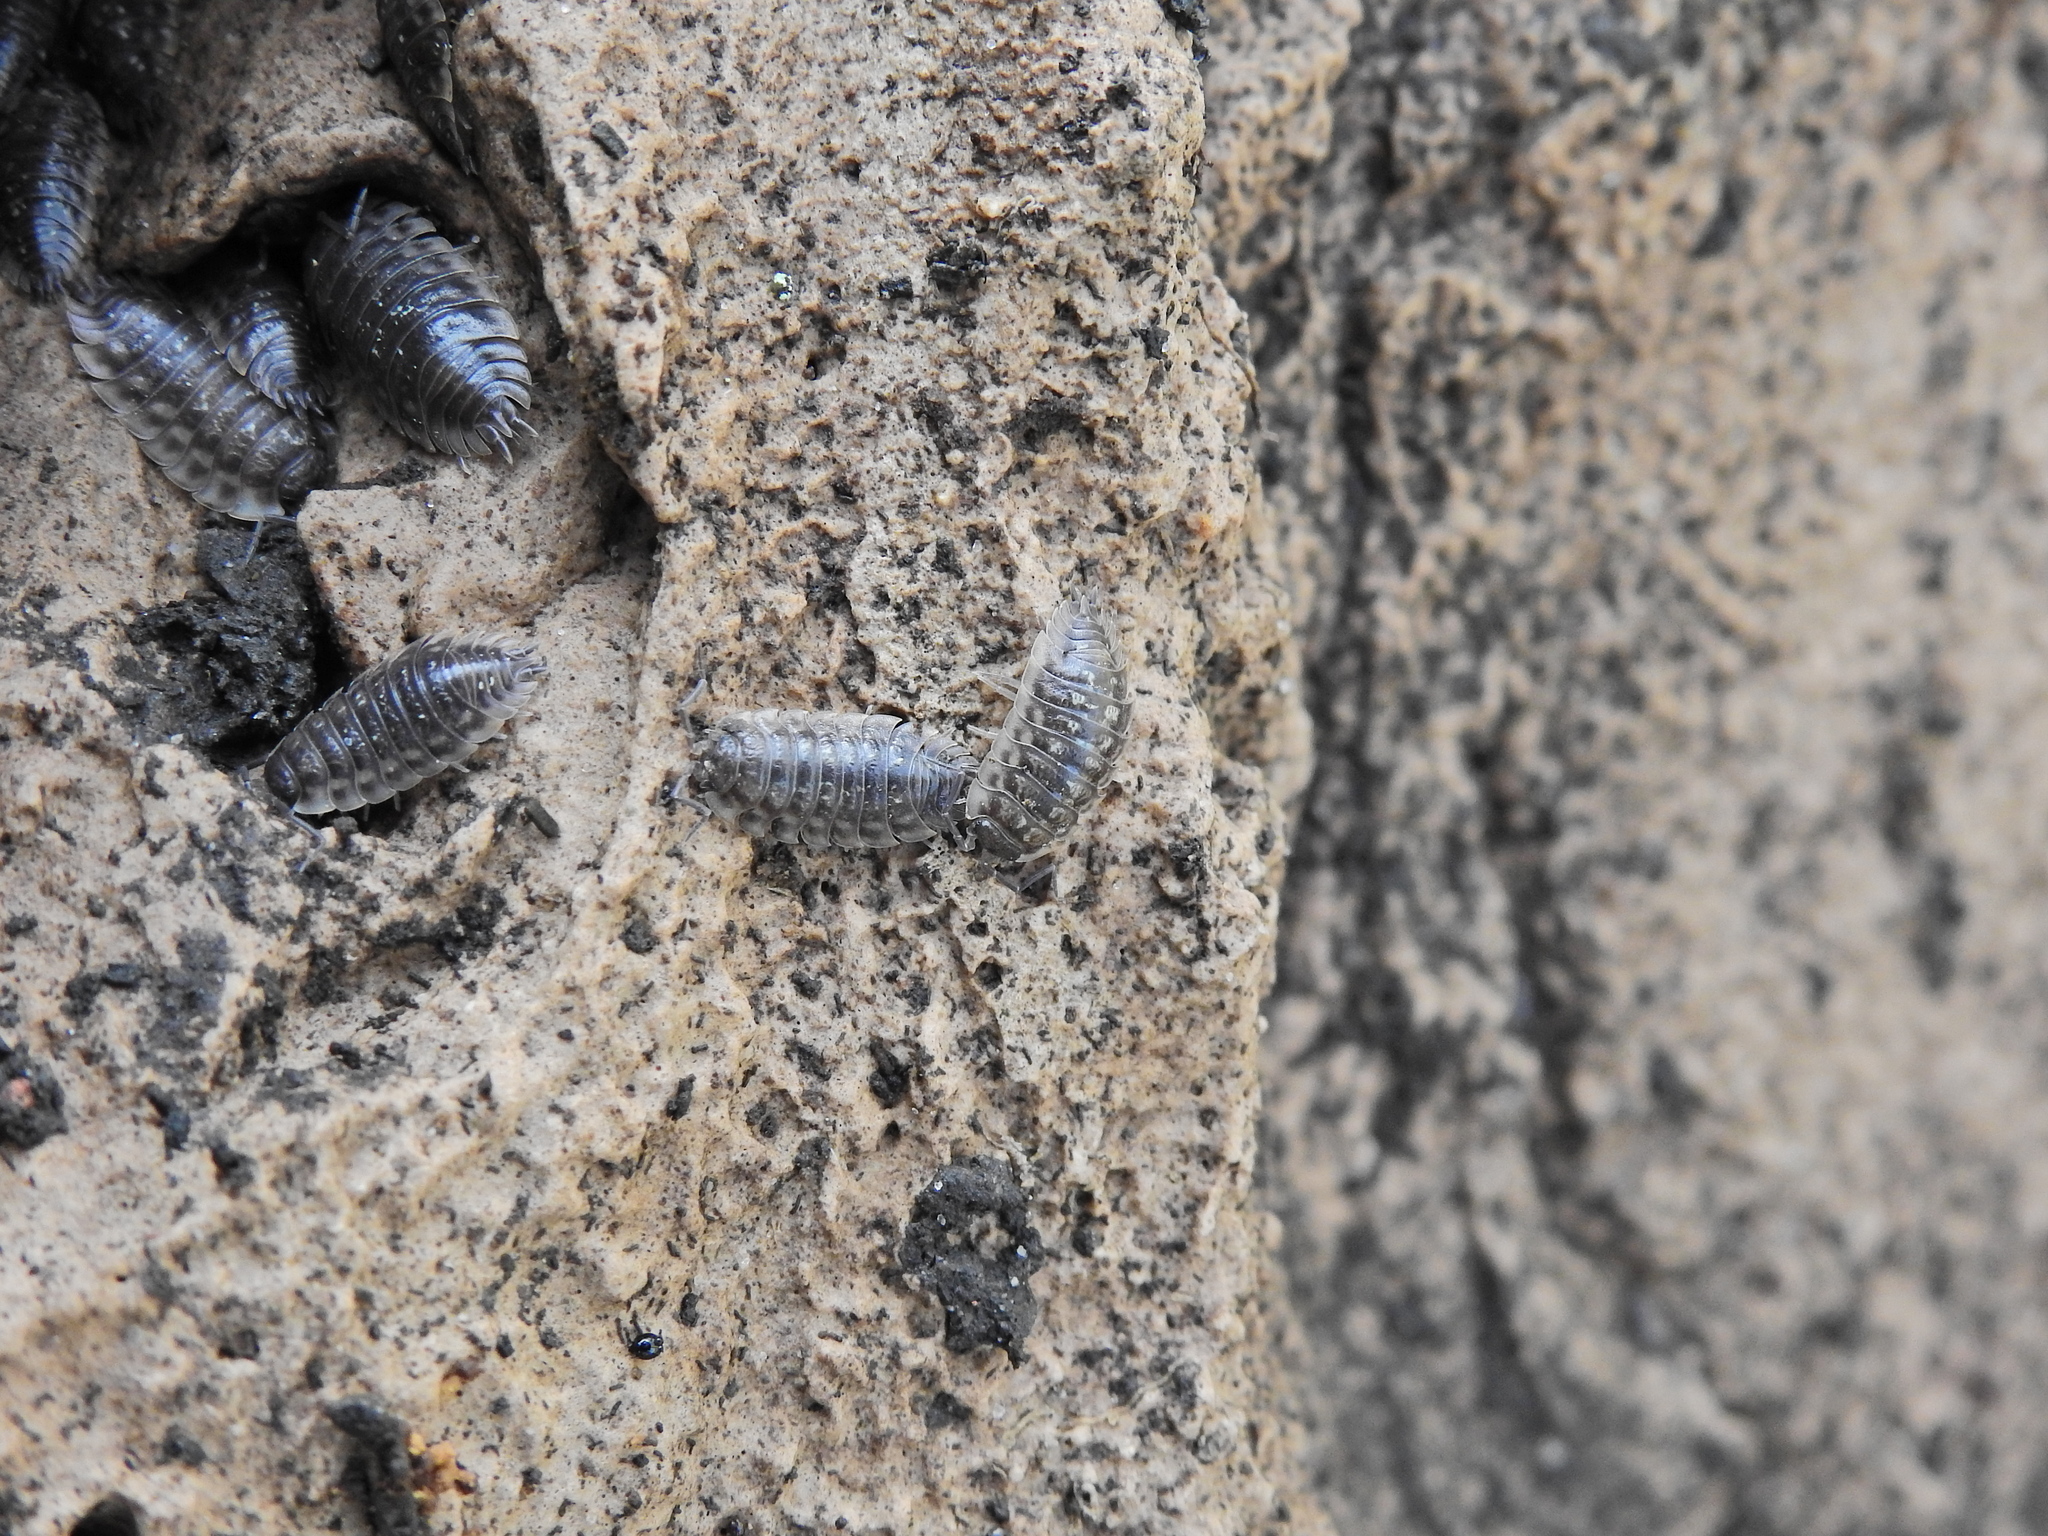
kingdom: Animalia
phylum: Arthropoda
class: Malacostraca
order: Isopoda
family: Oniscidae
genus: Oniscus
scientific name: Oniscus asellus
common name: Common shiny woodlouse
